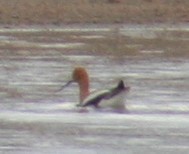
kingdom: Animalia
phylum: Chordata
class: Aves
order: Charadriiformes
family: Recurvirostridae
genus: Recurvirostra
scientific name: Recurvirostra americana
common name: American avocet
